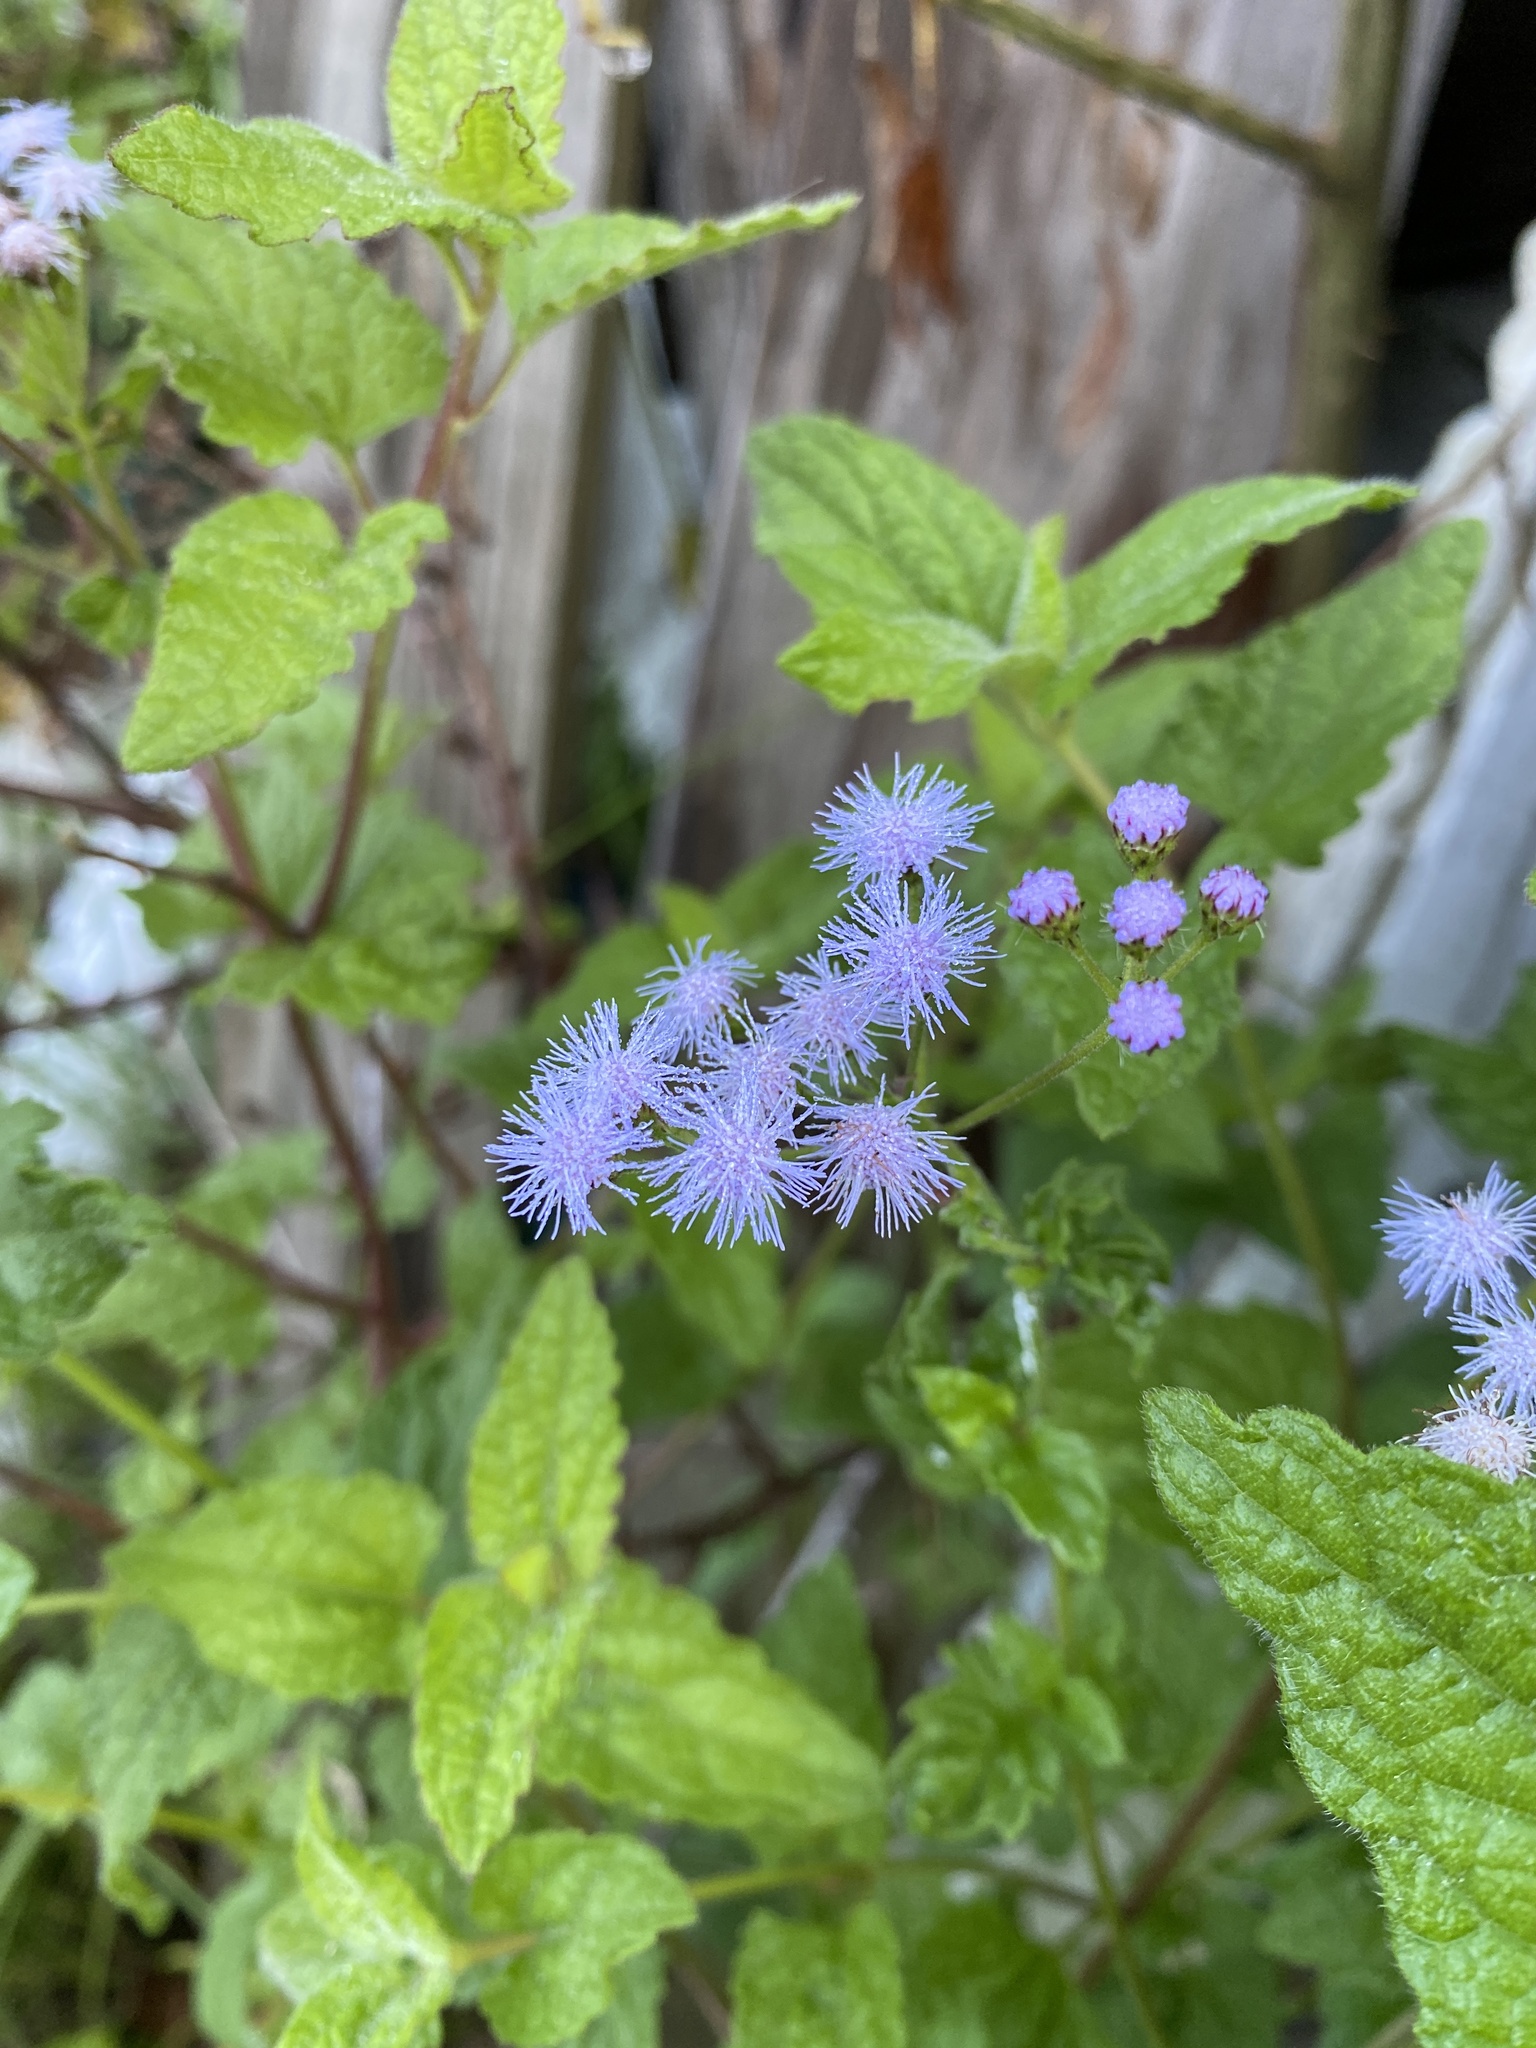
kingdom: Plantae
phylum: Tracheophyta
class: Magnoliopsida
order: Asterales
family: Asteraceae
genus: Conoclinium
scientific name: Conoclinium coelestinum
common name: Blue mistflower
